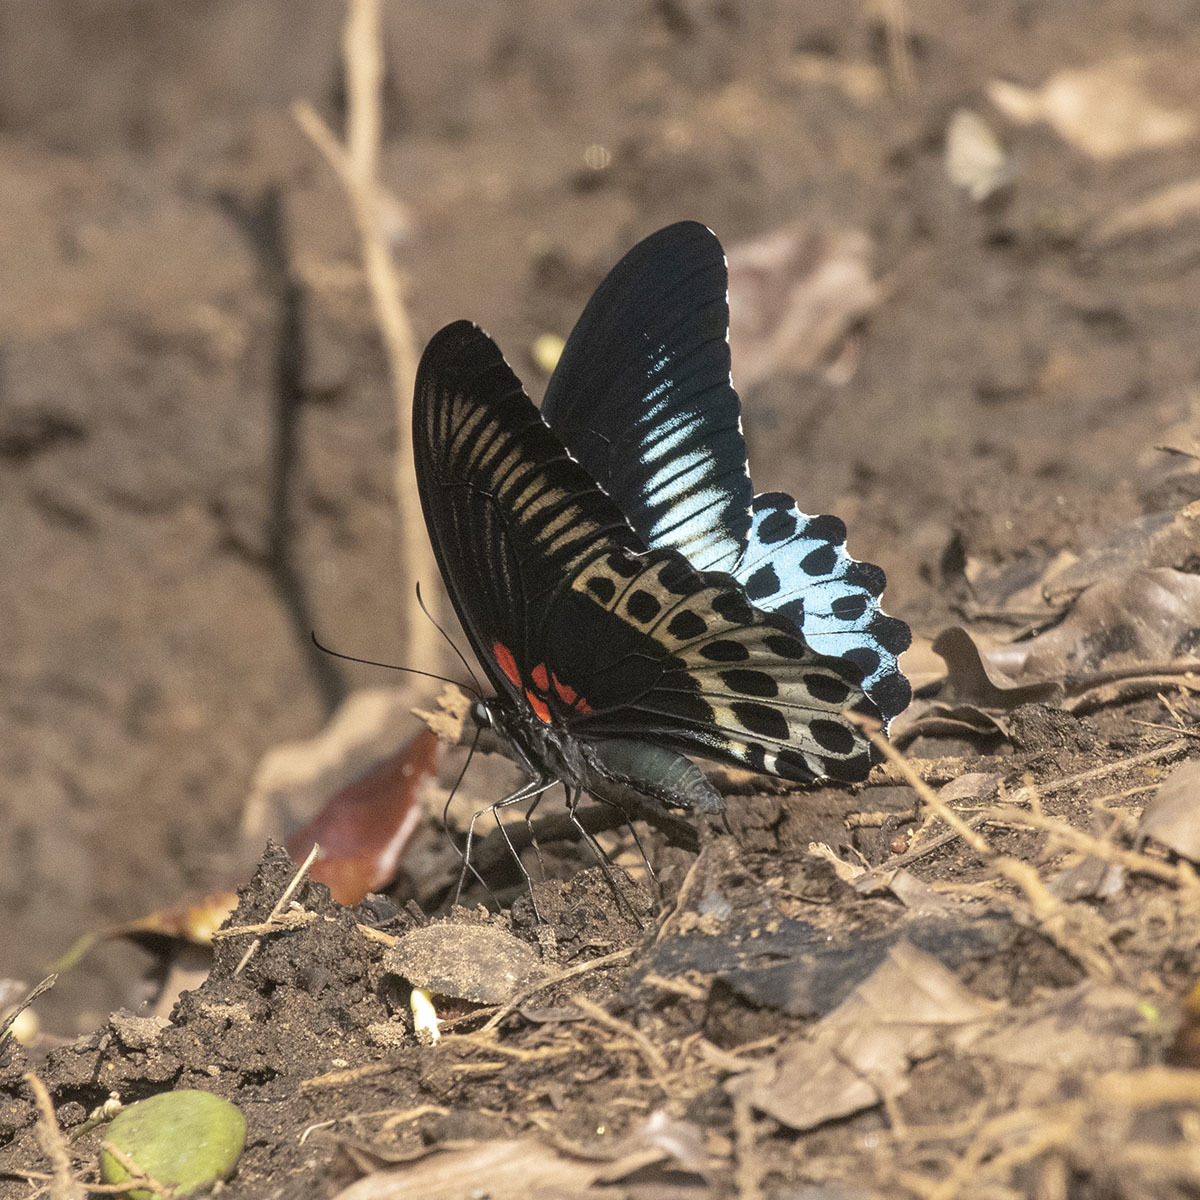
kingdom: Animalia
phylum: Arthropoda
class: Insecta
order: Lepidoptera
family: Papilionidae
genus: Papilio
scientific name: Papilio memnon
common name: Great mormon
